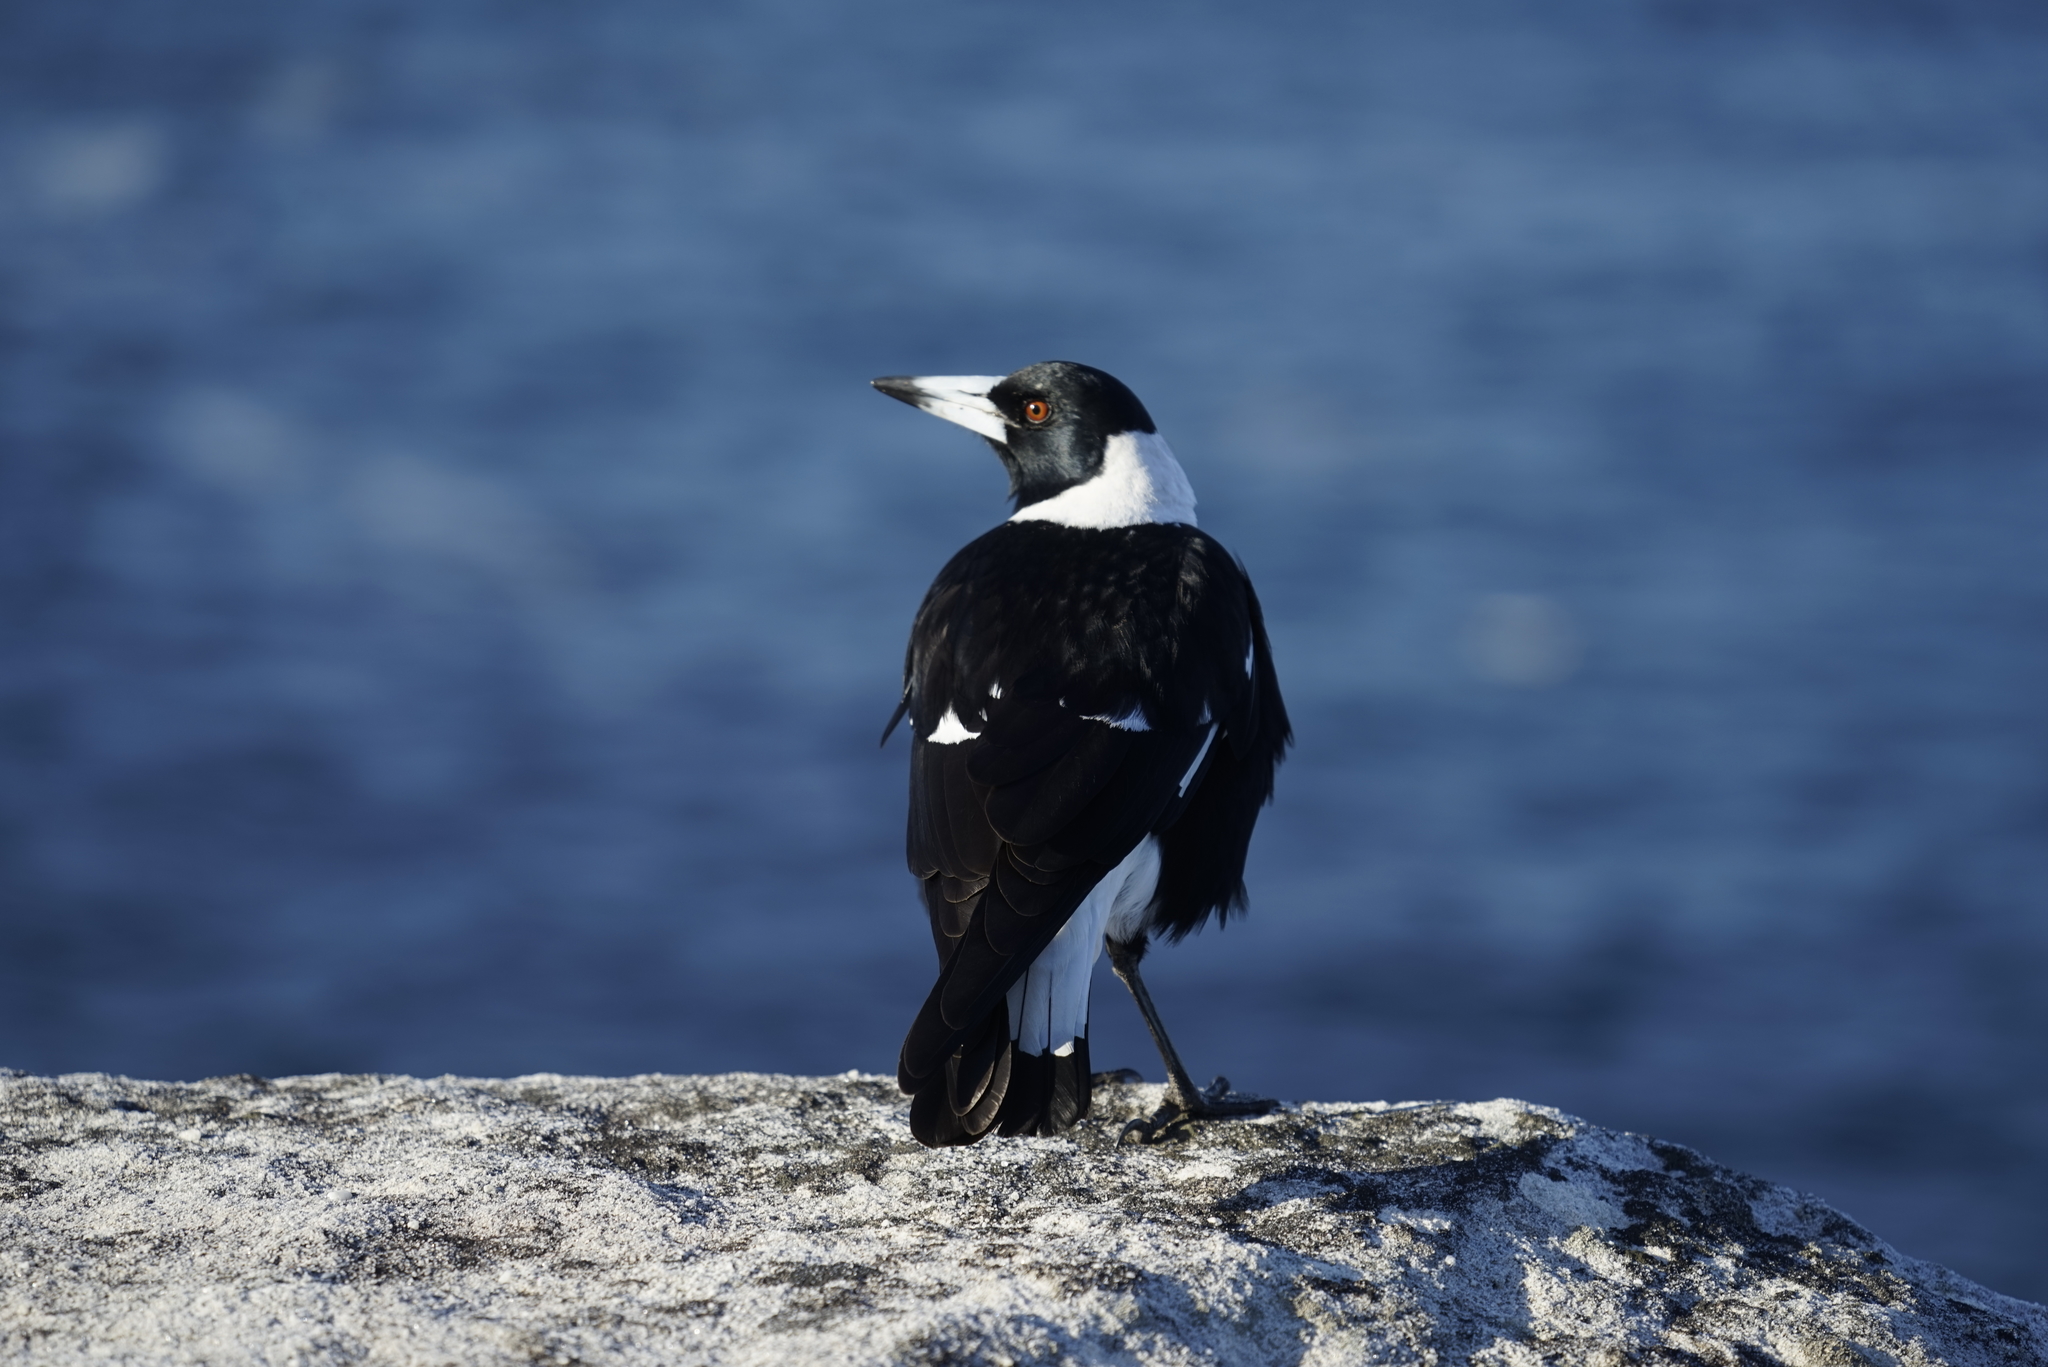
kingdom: Animalia
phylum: Chordata
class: Aves
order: Passeriformes
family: Cracticidae
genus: Gymnorhina
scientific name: Gymnorhina tibicen
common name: Australian magpie
